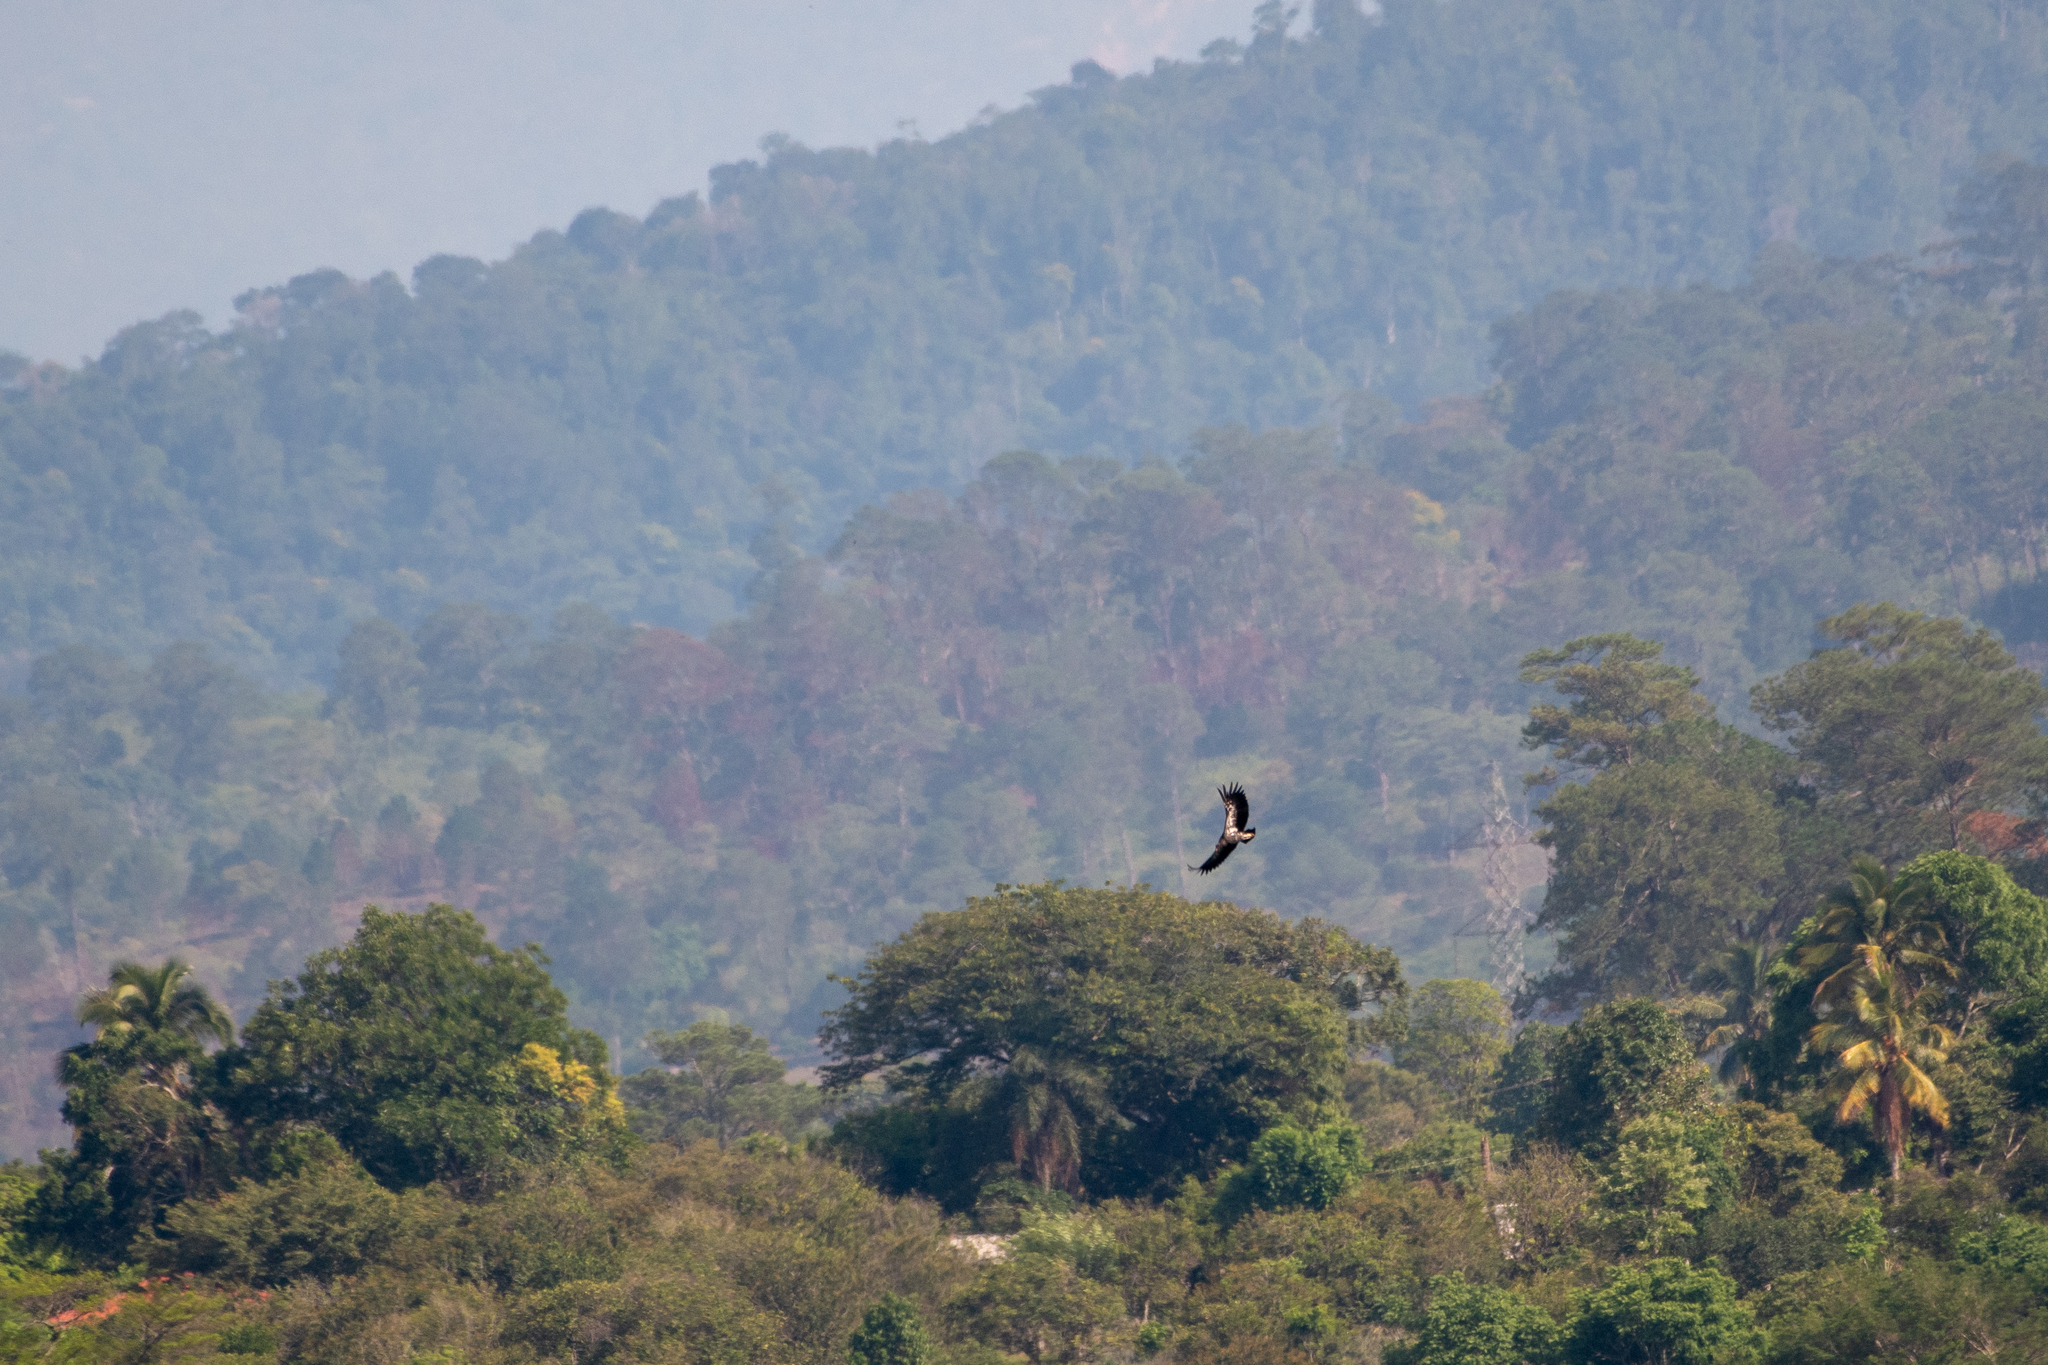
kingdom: Animalia
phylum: Chordata
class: Aves
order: Accipitriformes
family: Cathartidae
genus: Sarcoramphus
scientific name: Sarcoramphus papa
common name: King vulture
